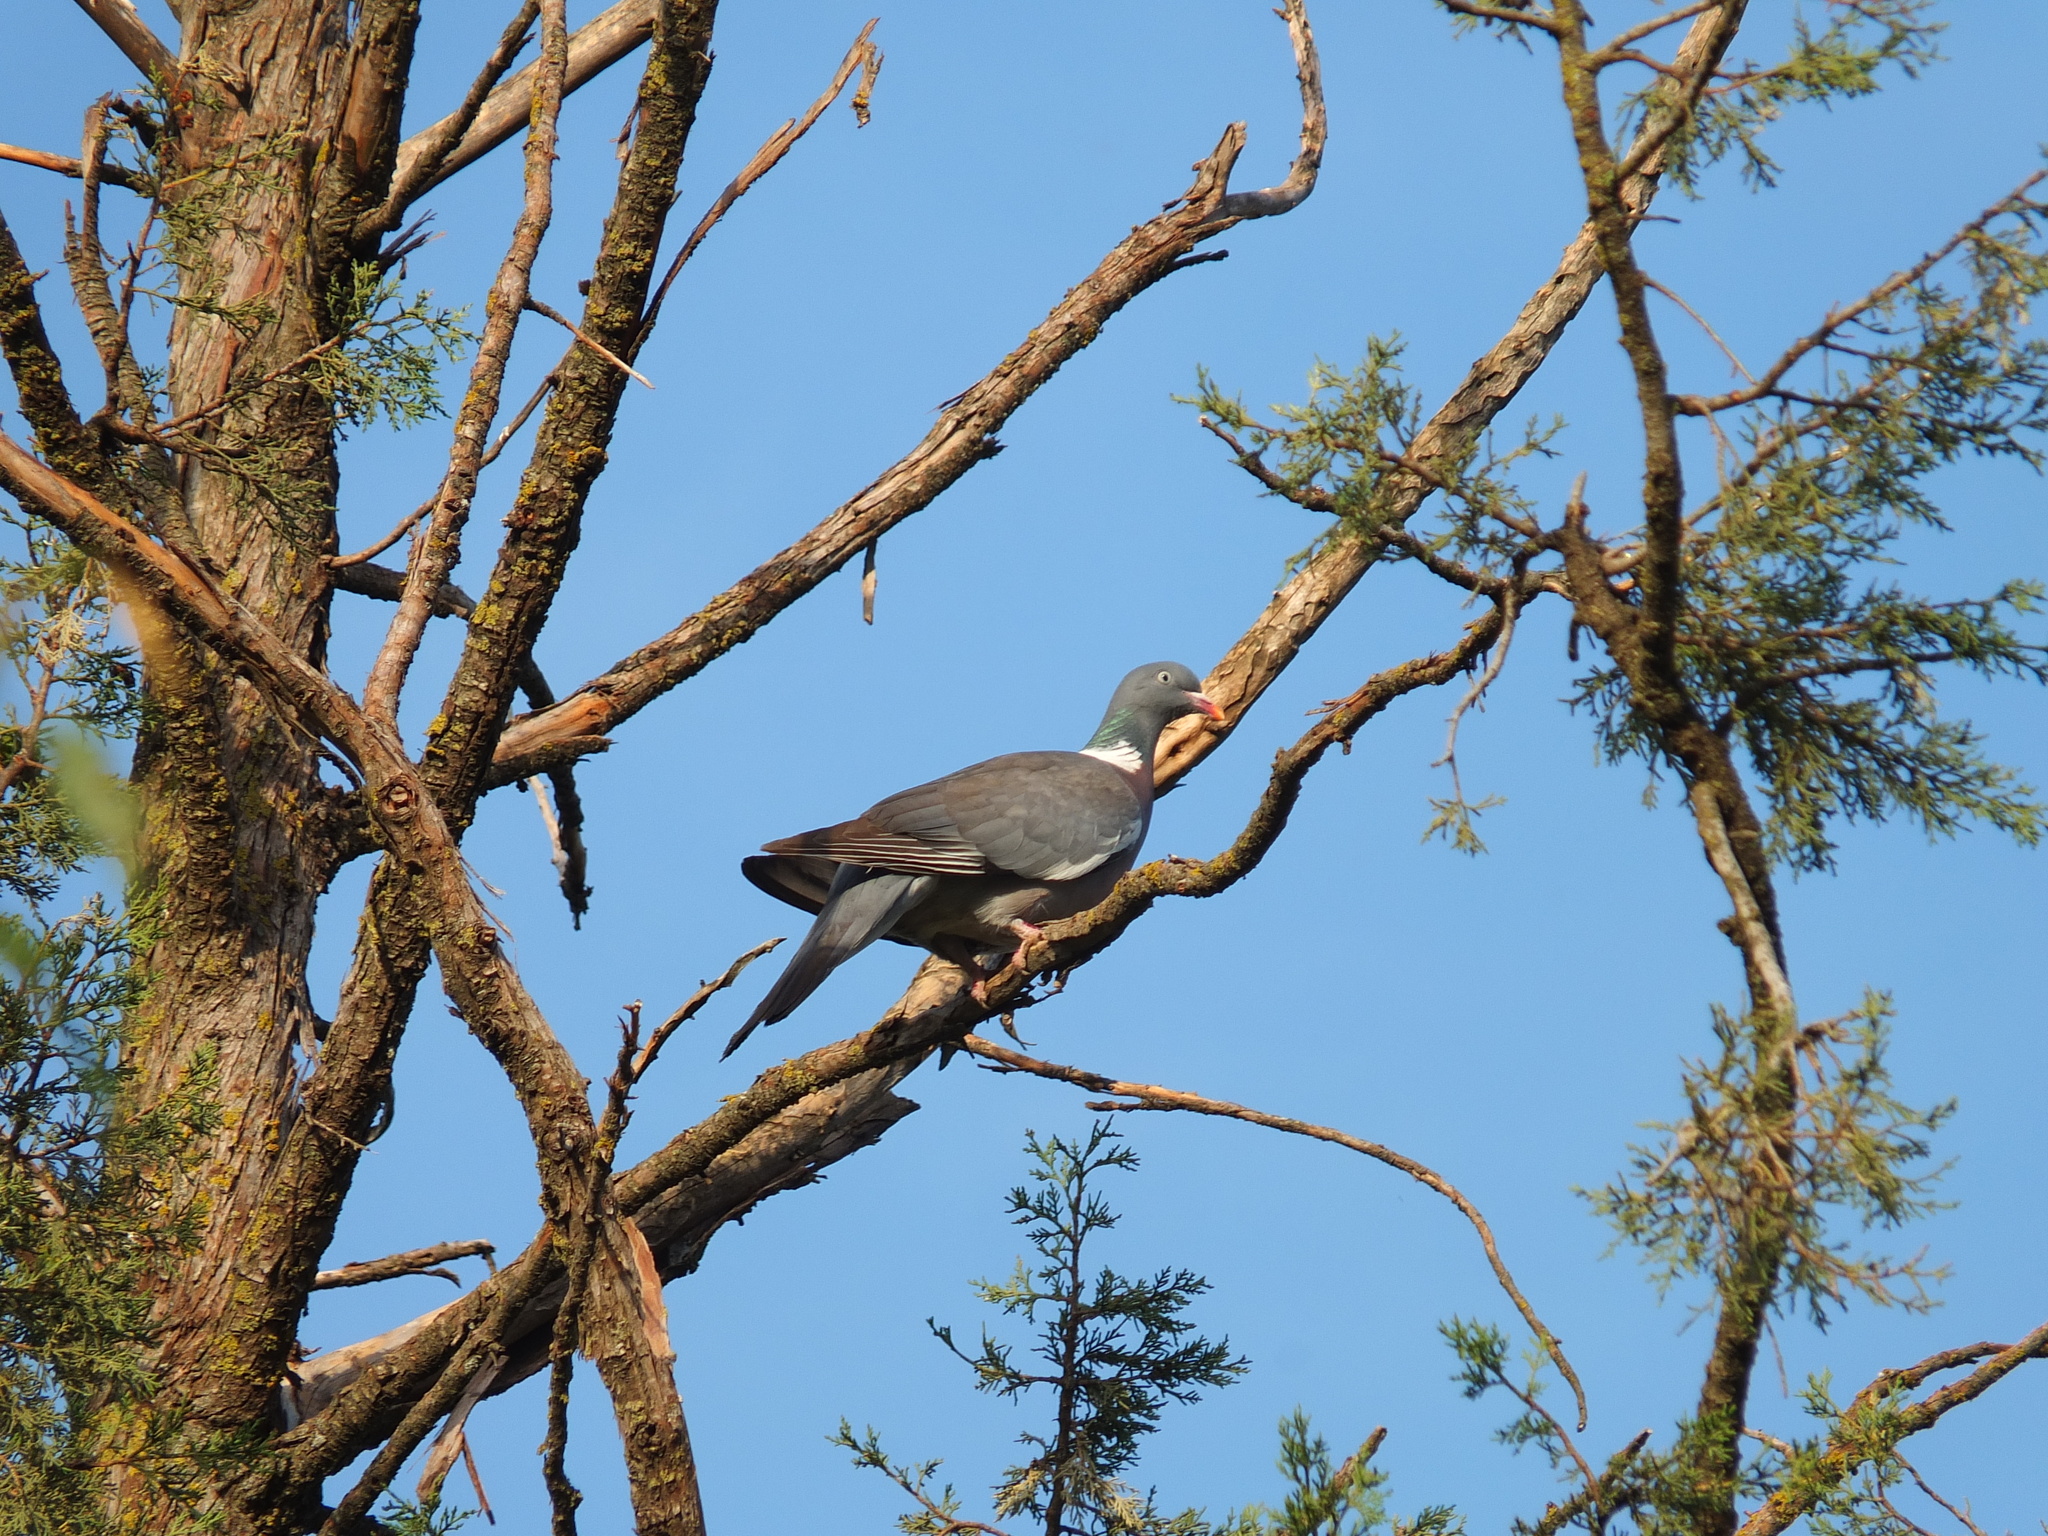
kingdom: Animalia
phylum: Chordata
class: Aves
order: Columbiformes
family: Columbidae
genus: Columba
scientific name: Columba palumbus
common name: Common wood pigeon
